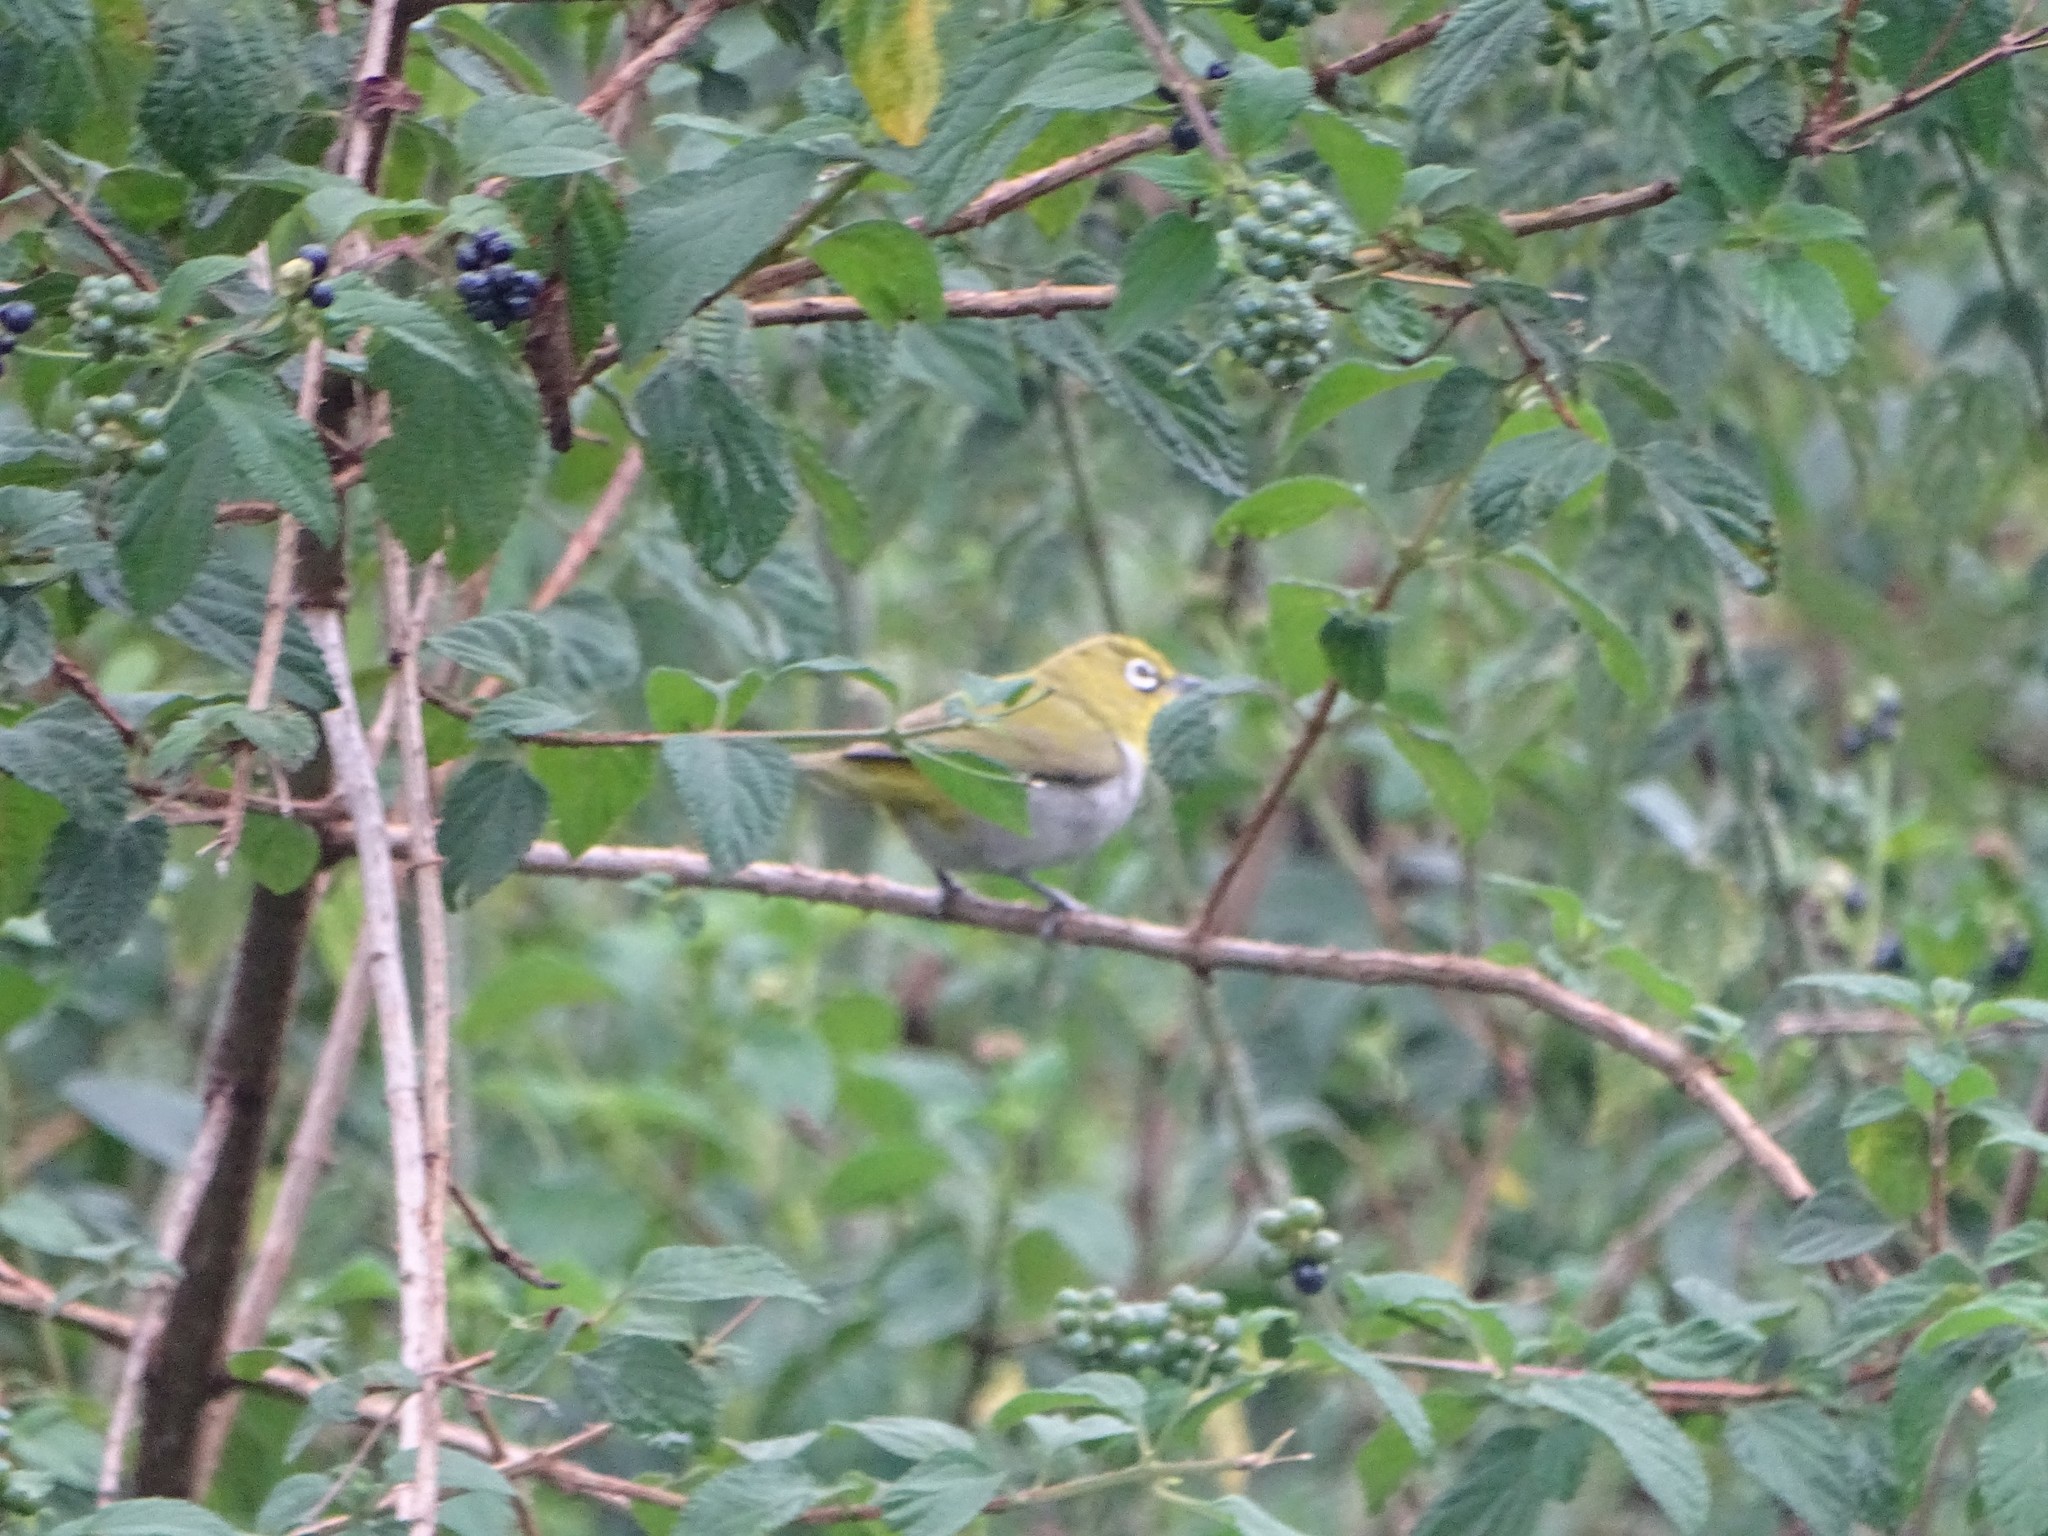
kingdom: Animalia
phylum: Chordata
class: Aves
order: Passeriformes
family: Zosteropidae
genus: Zosterops
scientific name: Zosterops palpebrosus
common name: Oriental white-eye
